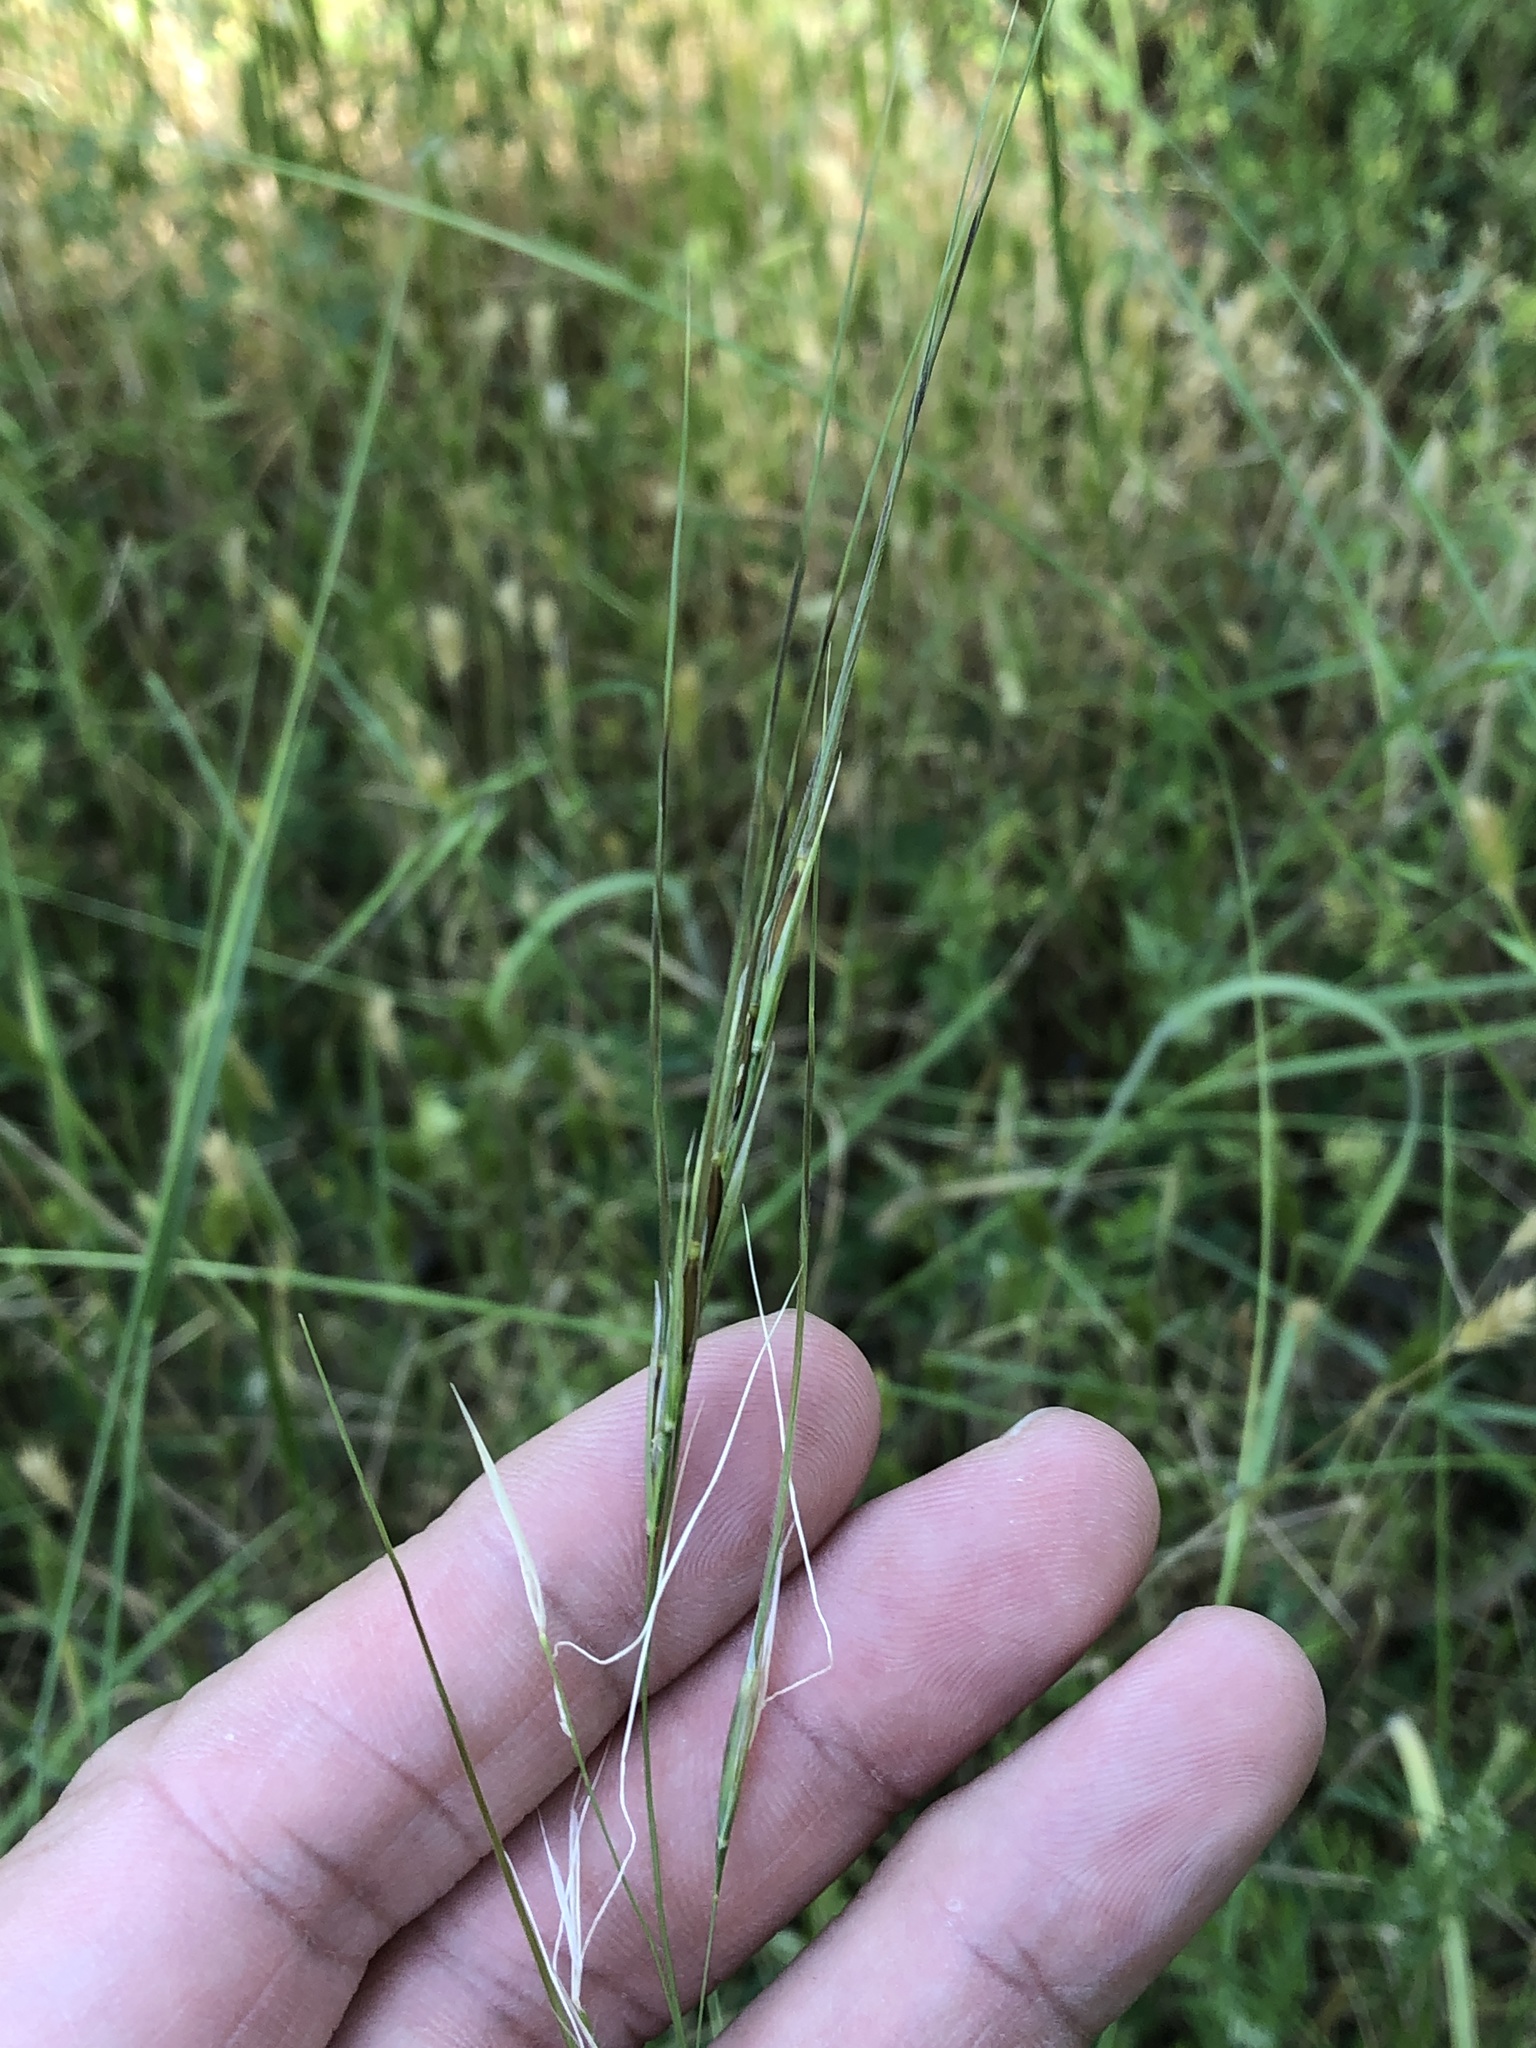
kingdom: Plantae
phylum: Tracheophyta
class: Liliopsida
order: Poales
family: Poaceae
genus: Nassella
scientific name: Nassella leucotricha
